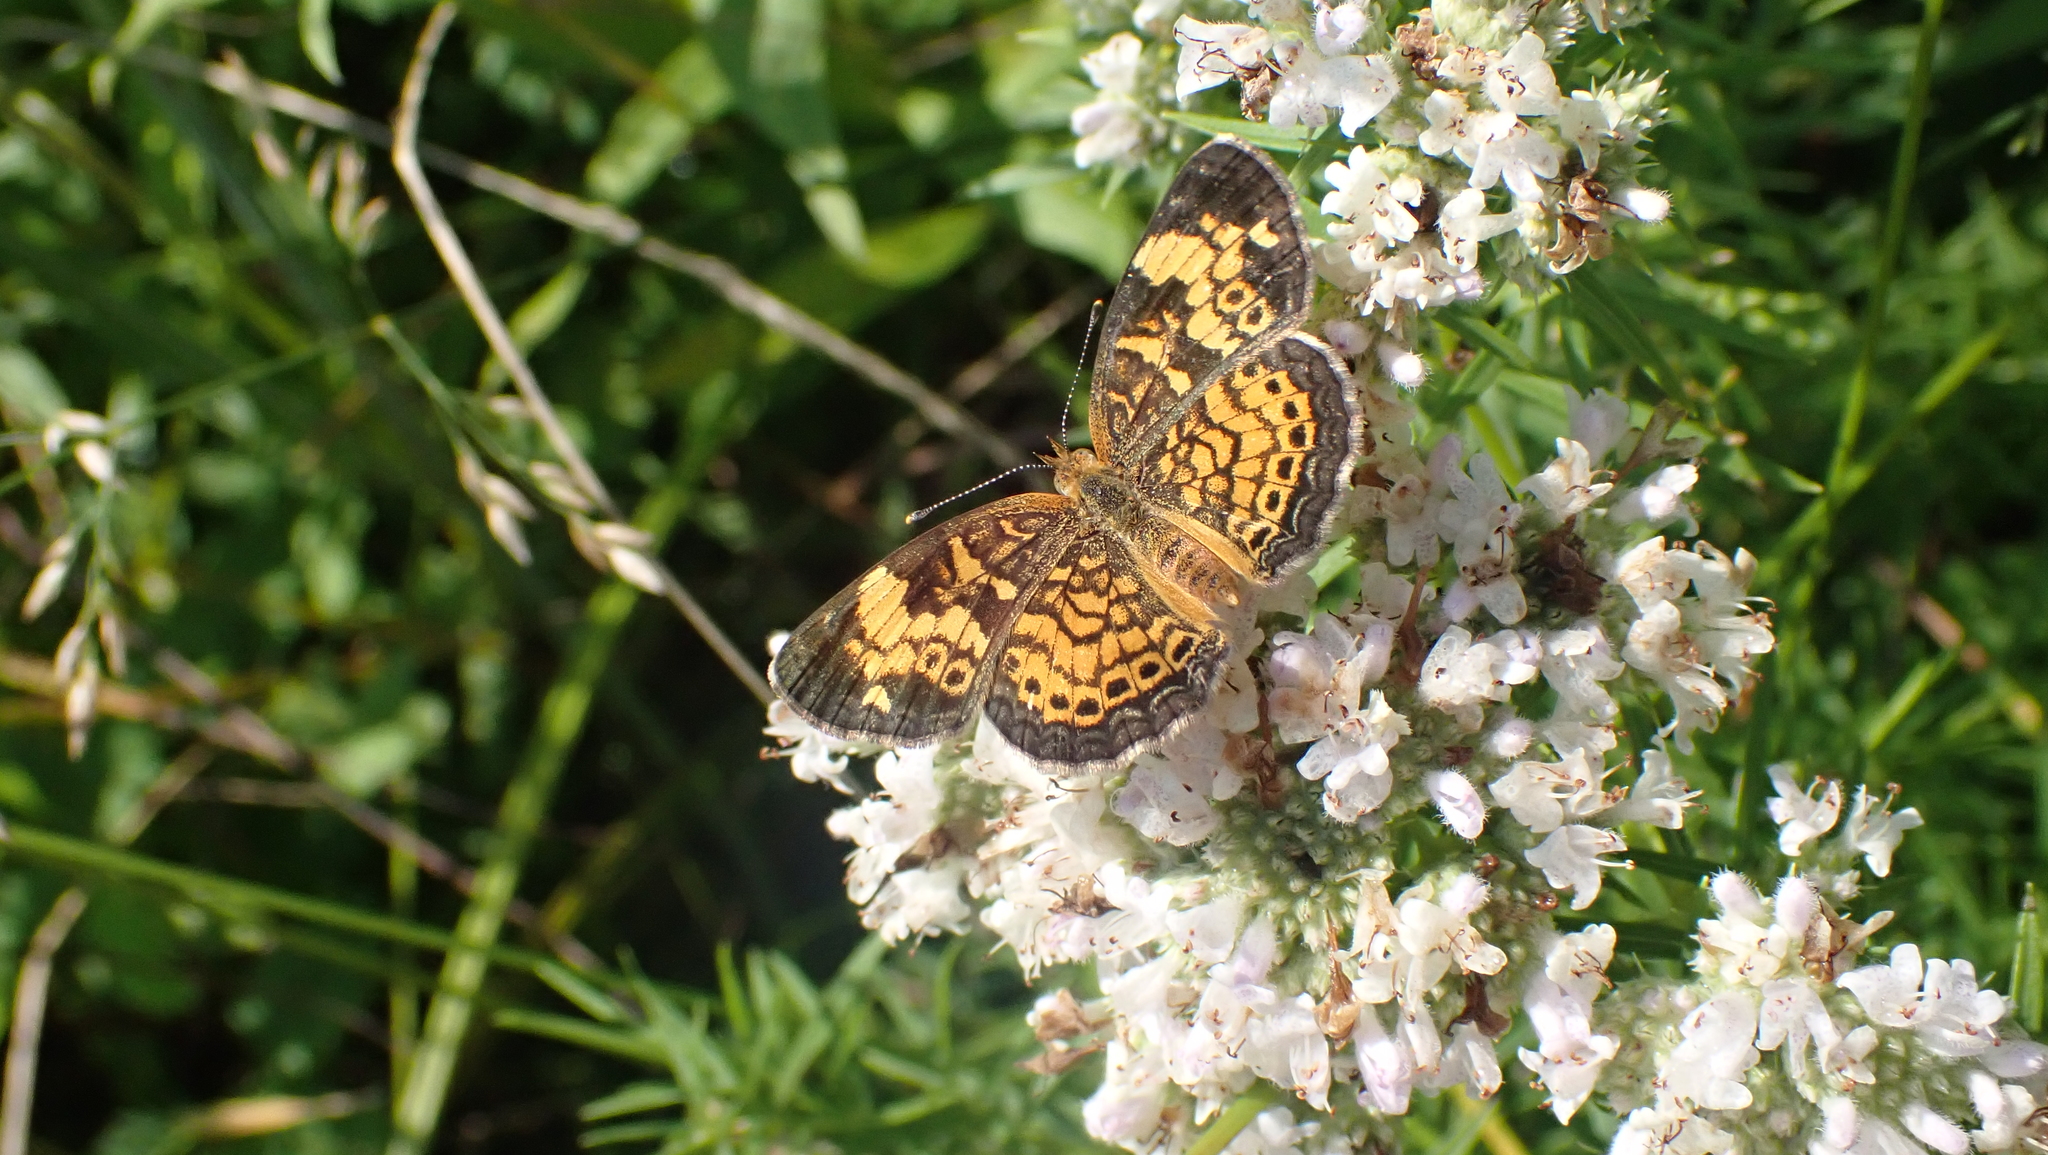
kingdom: Animalia
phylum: Arthropoda
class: Insecta
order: Lepidoptera
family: Nymphalidae
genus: Phyciodes
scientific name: Phyciodes tharos
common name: Pearl crescent
